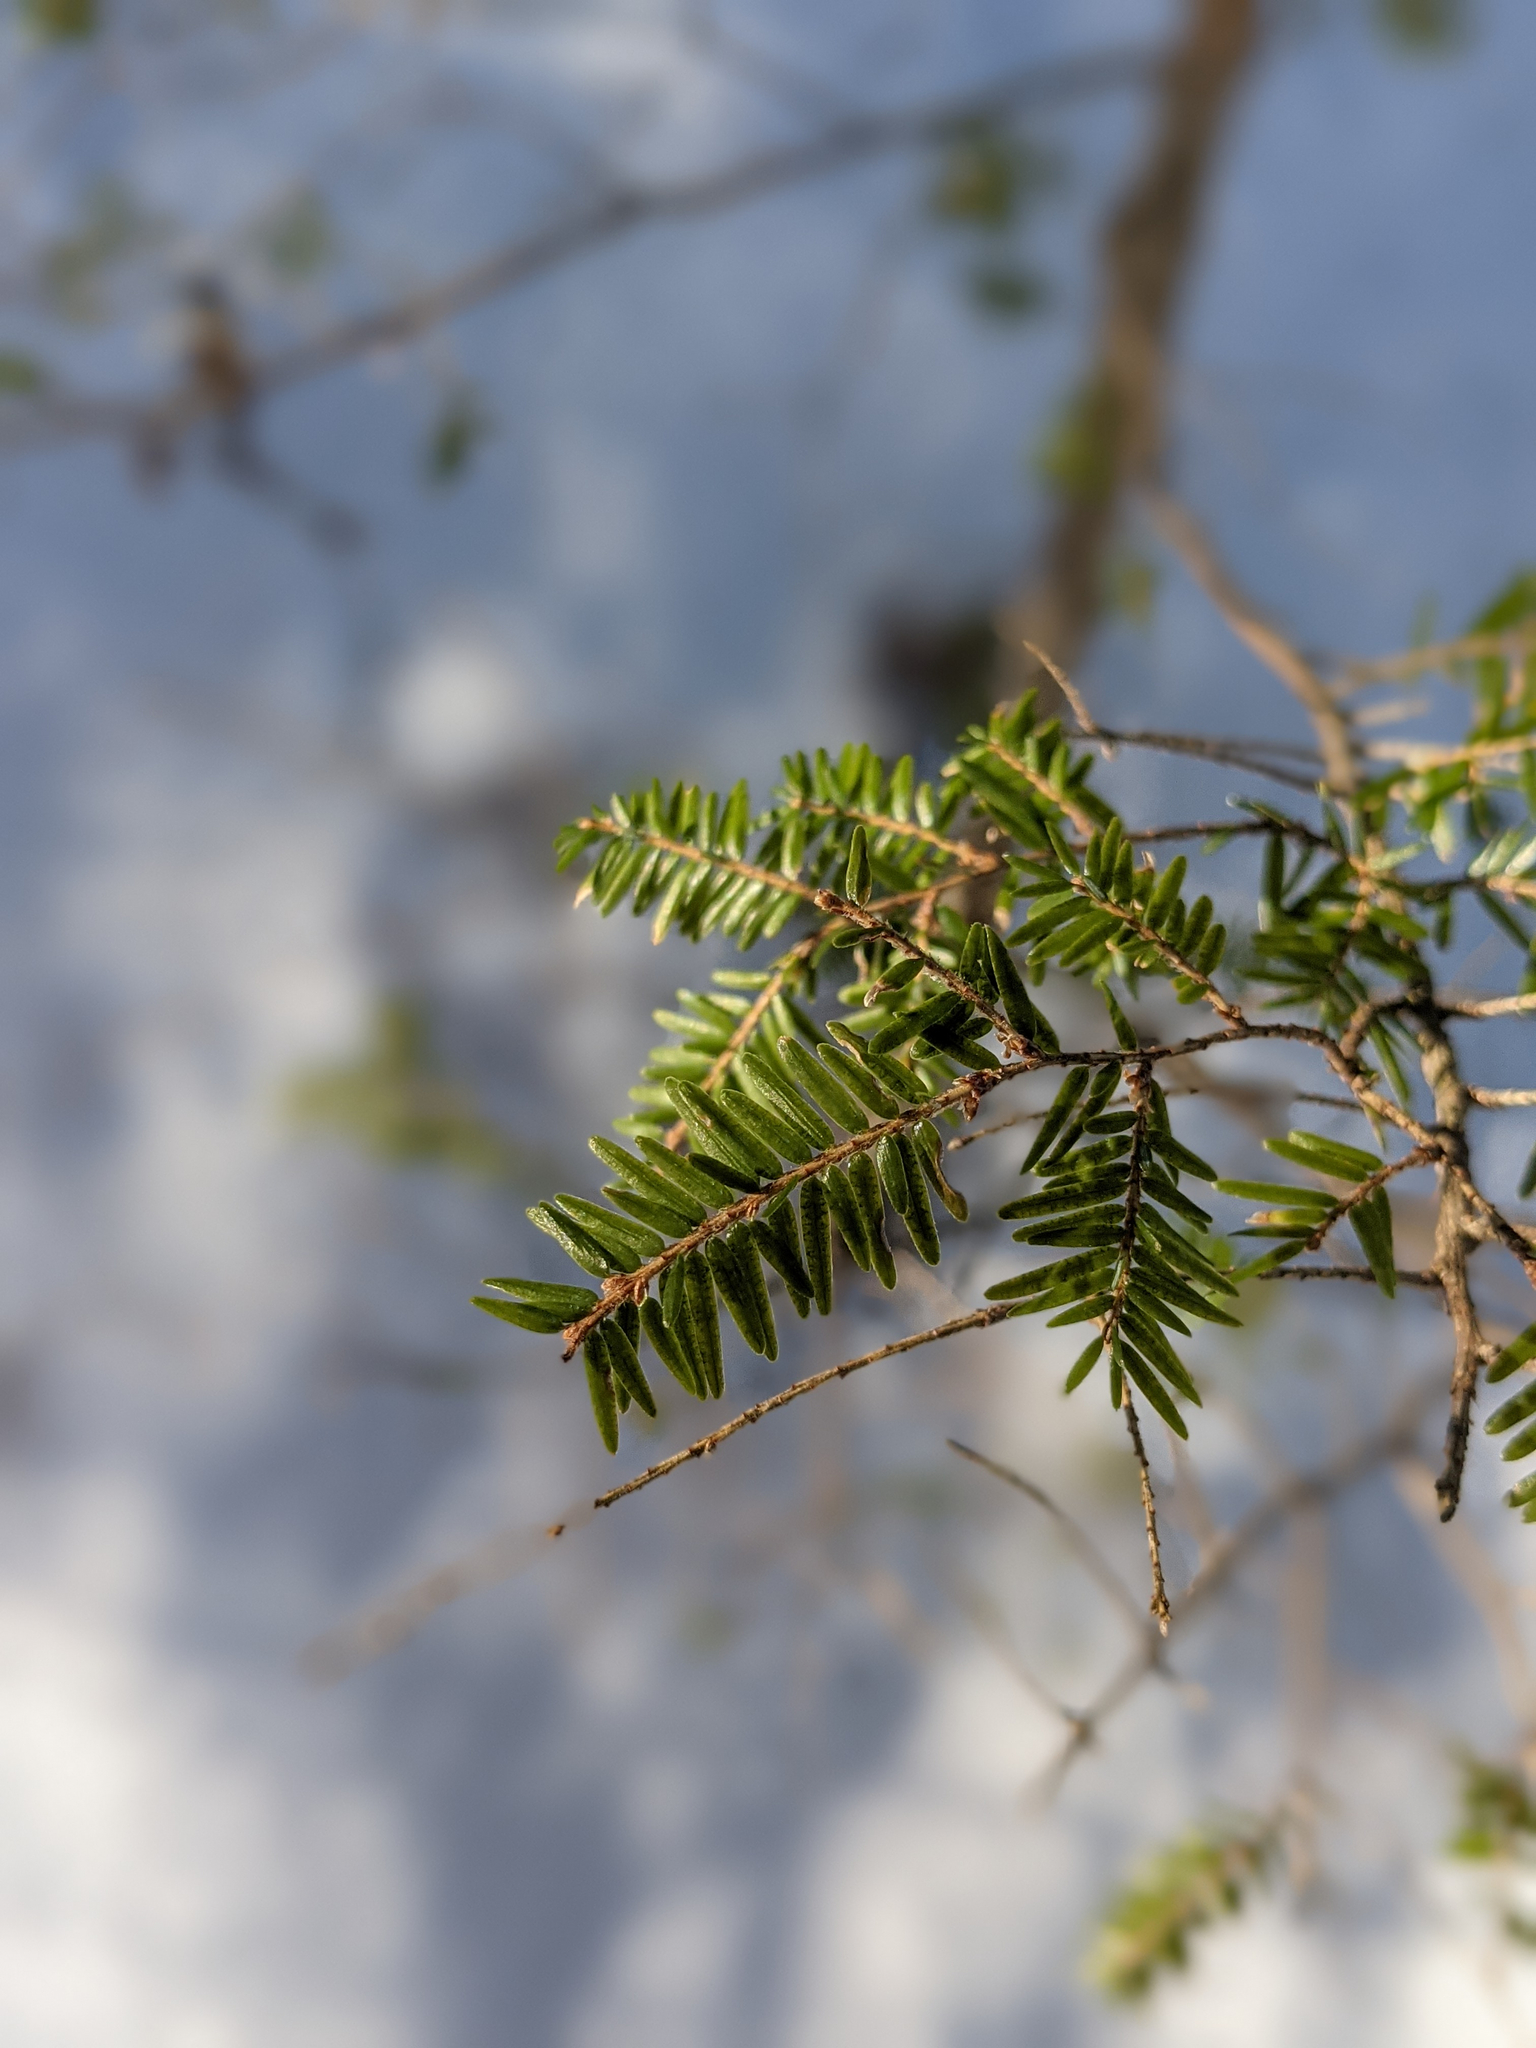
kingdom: Plantae
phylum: Tracheophyta
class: Pinopsida
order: Pinales
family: Pinaceae
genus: Tsuga
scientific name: Tsuga canadensis
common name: Eastern hemlock
